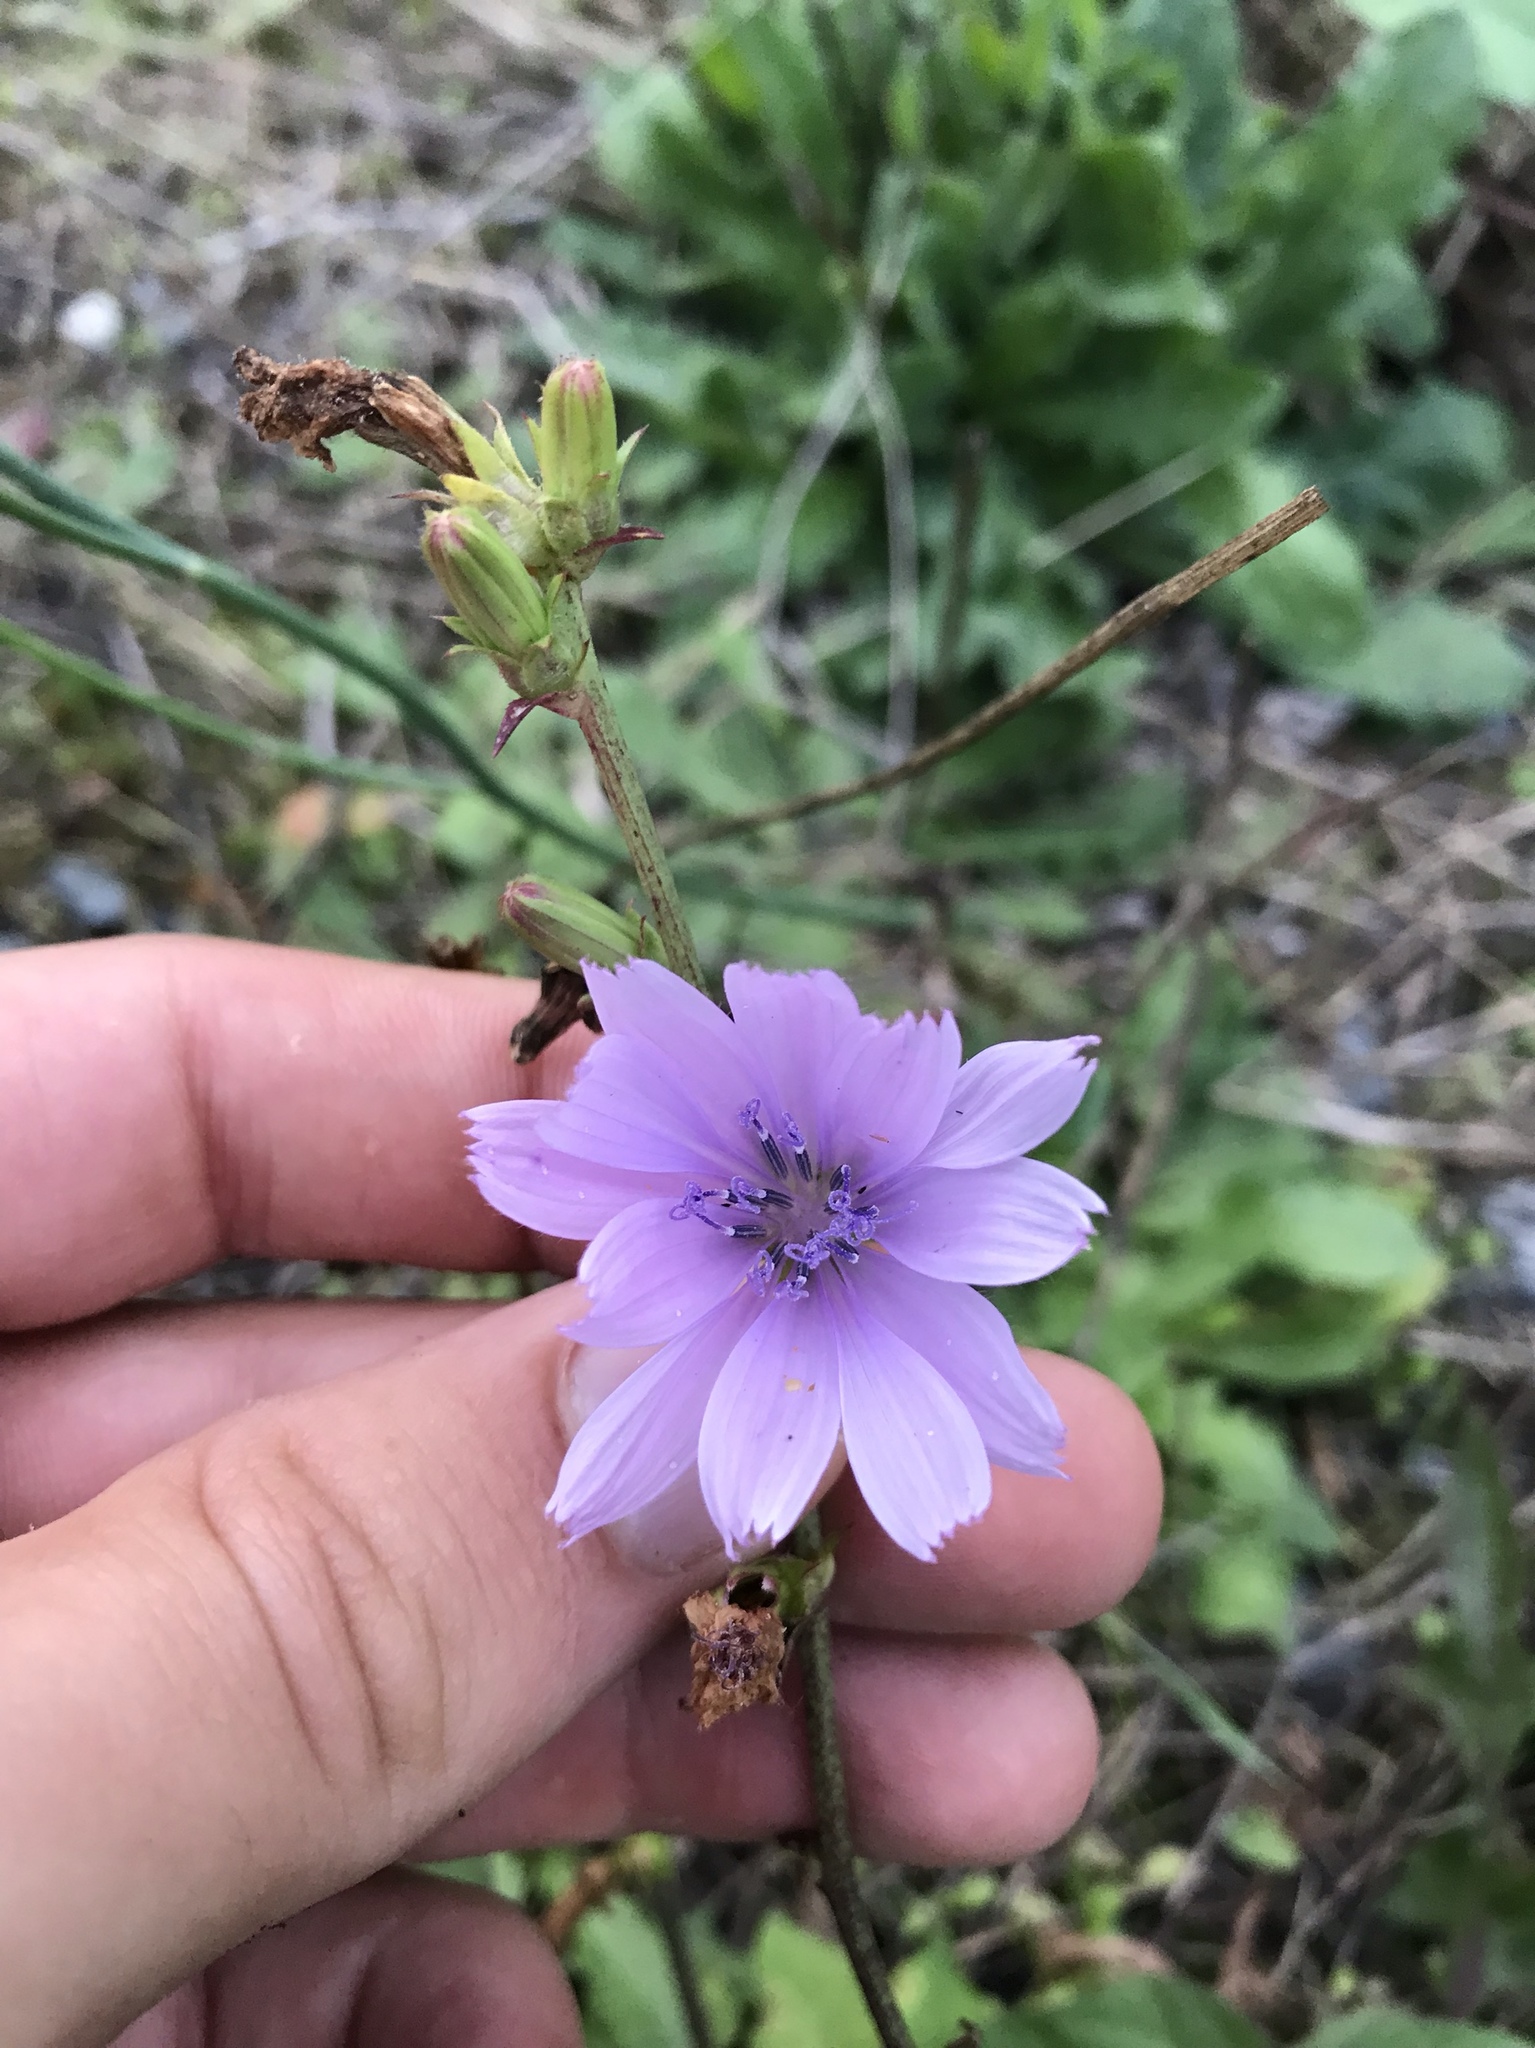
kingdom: Plantae
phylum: Tracheophyta
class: Magnoliopsida
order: Asterales
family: Asteraceae
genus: Cichorium
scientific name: Cichorium intybus
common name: Chicory
